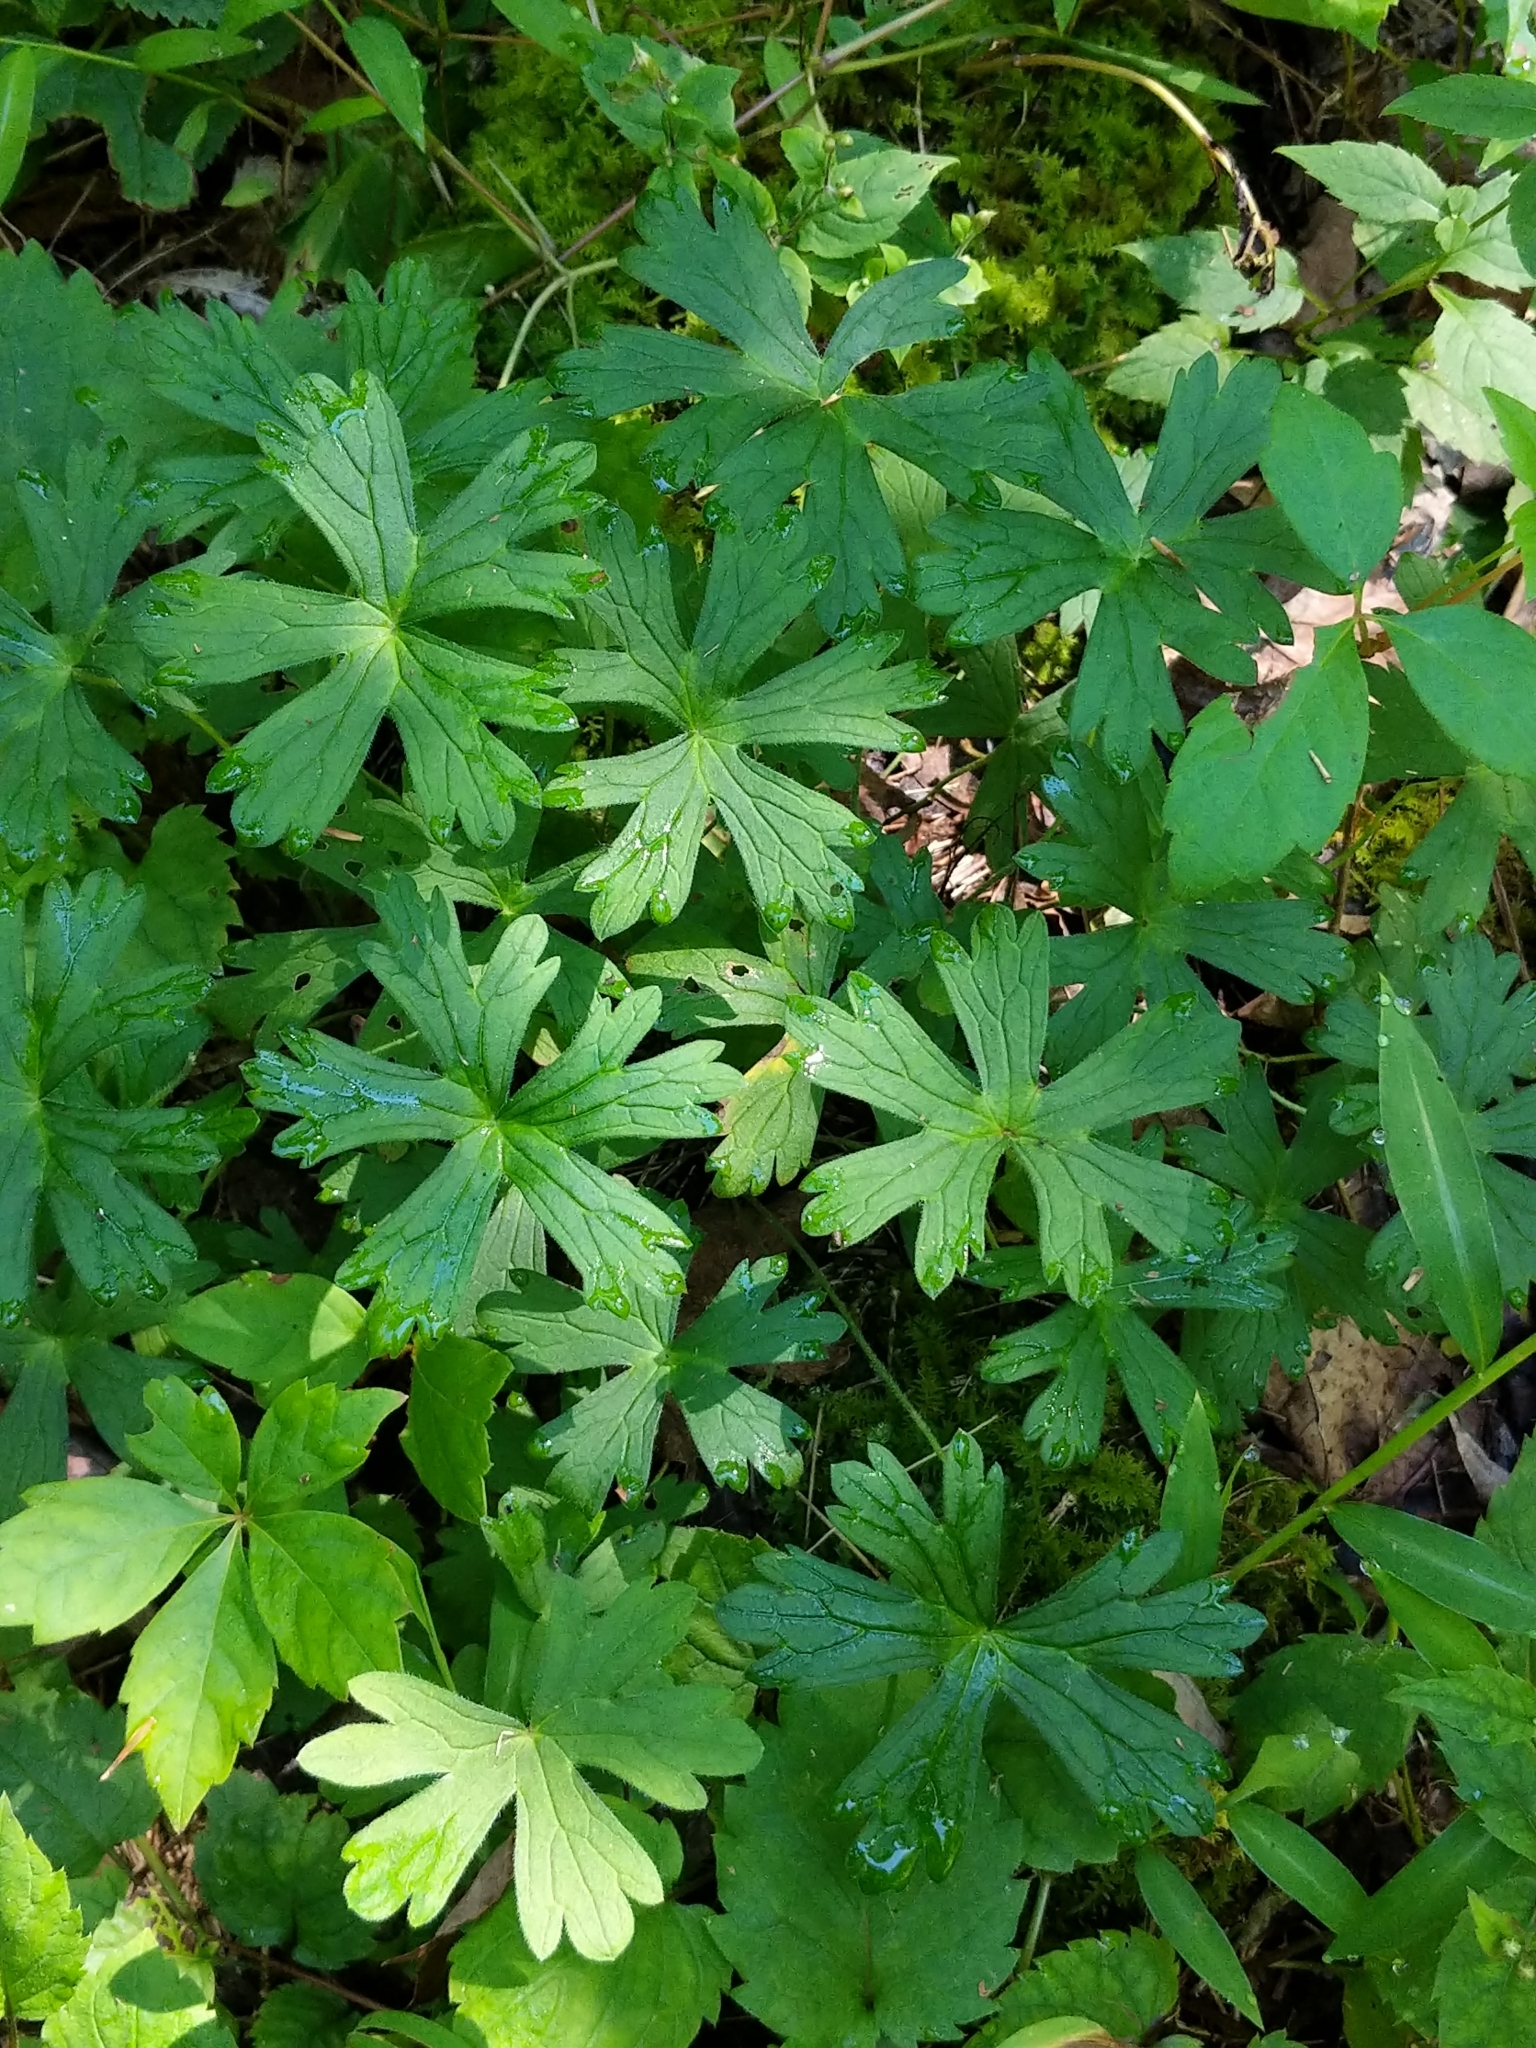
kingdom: Plantae
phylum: Tracheophyta
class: Magnoliopsida
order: Geraniales
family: Geraniaceae
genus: Geranium
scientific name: Geranium maculatum
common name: Spotted geranium
